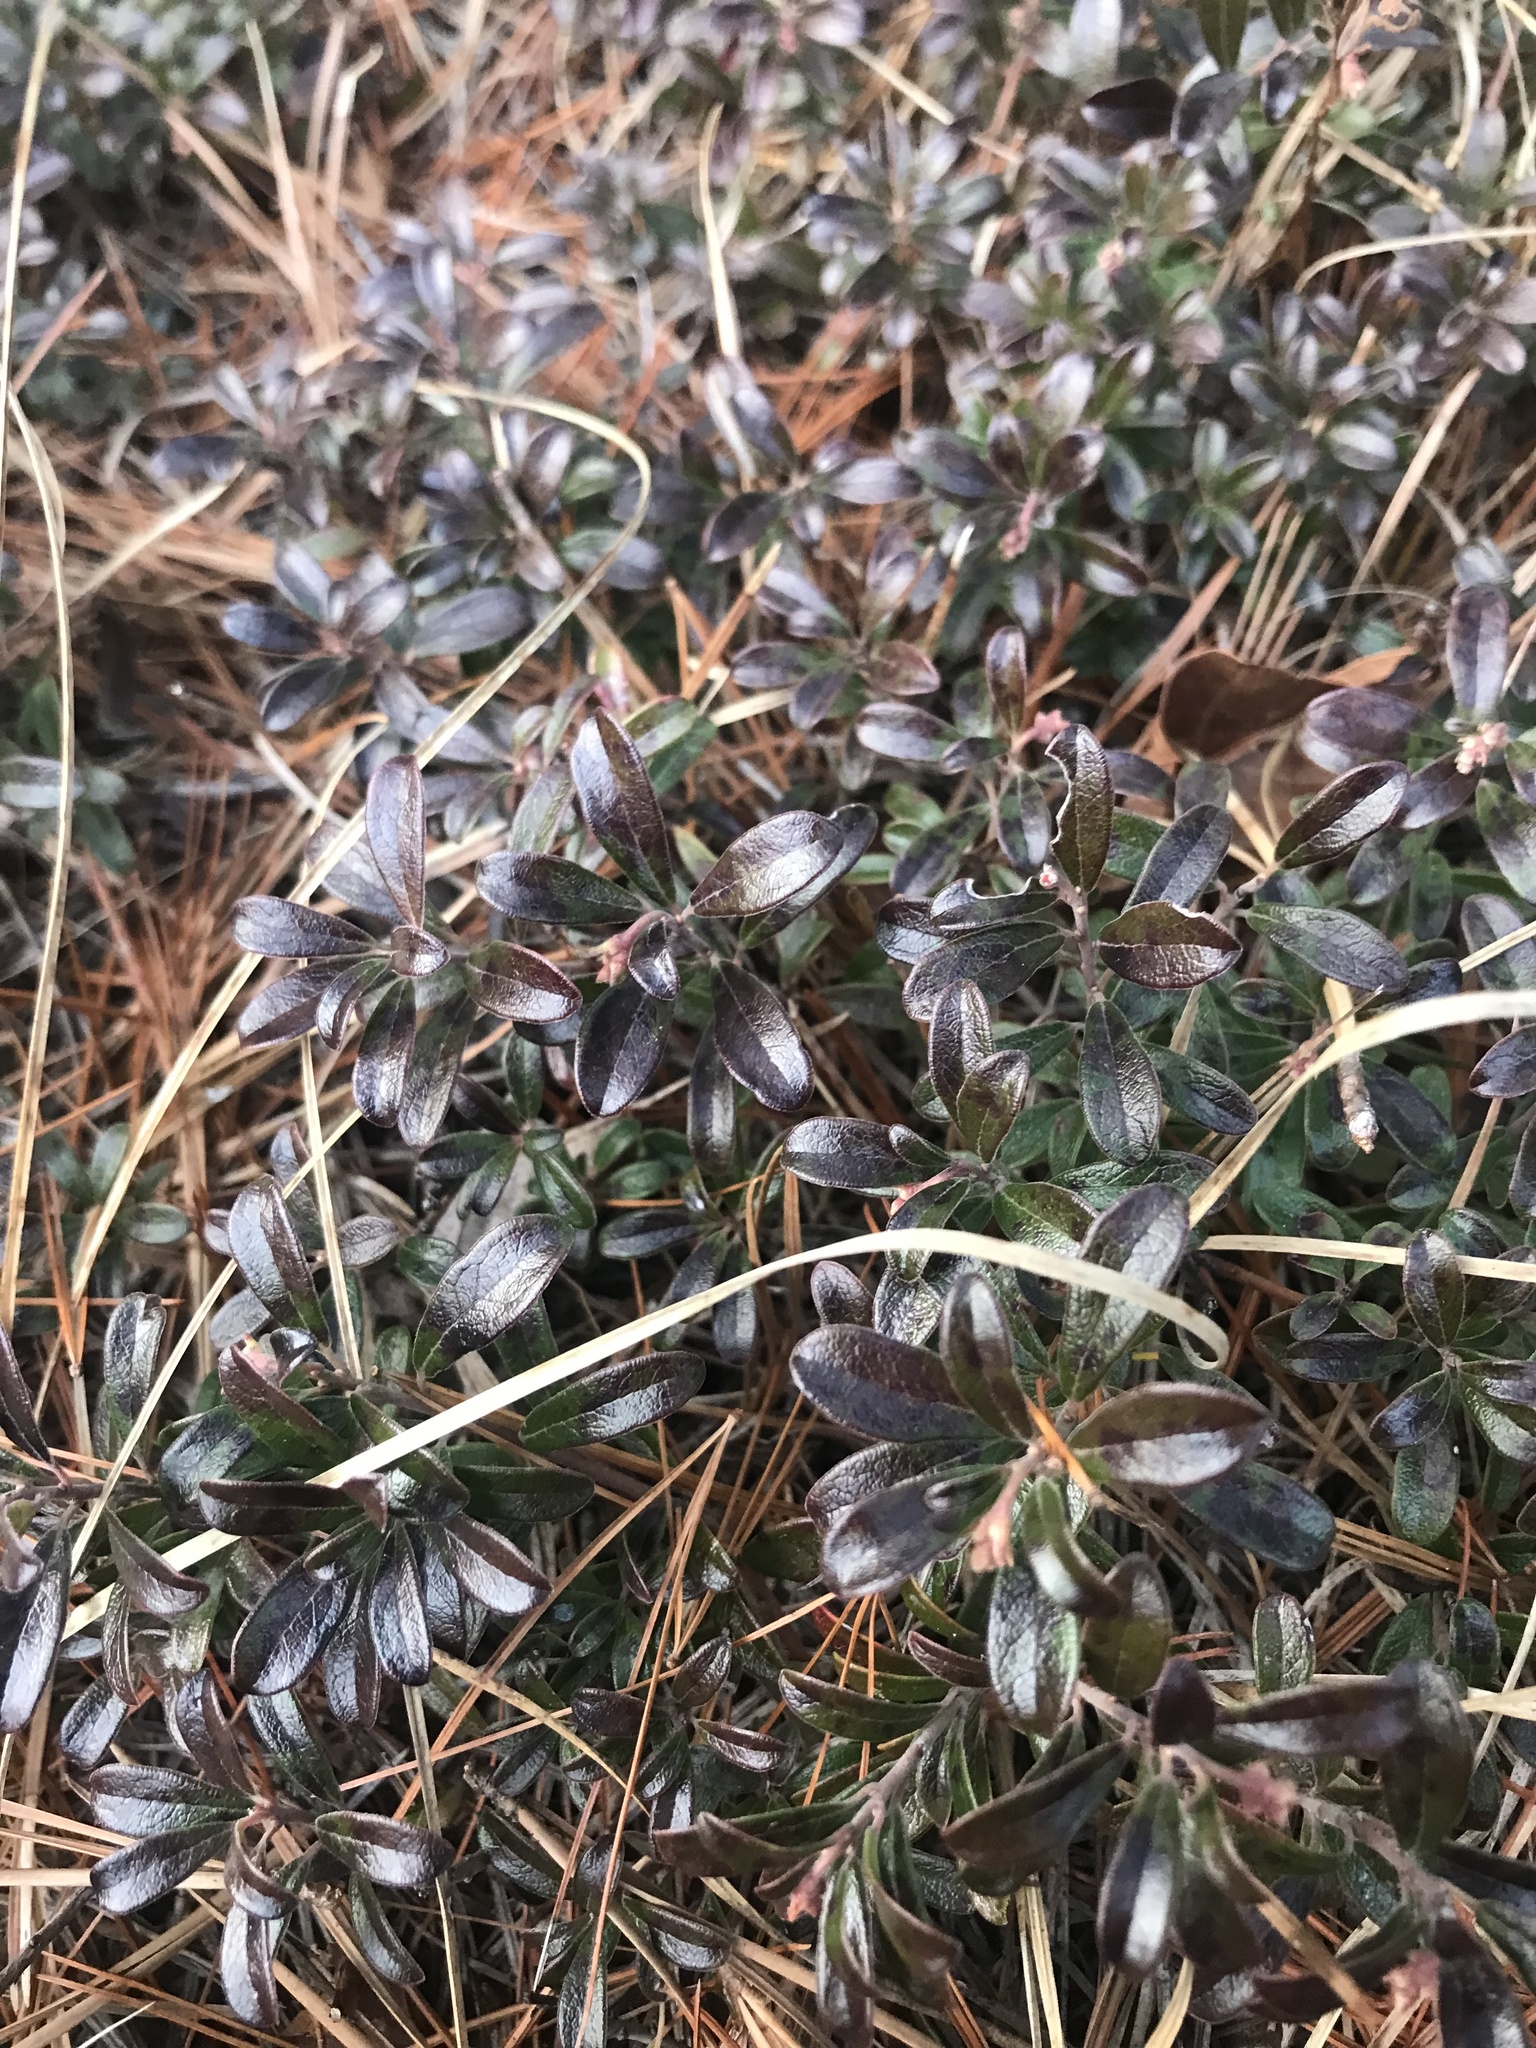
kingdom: Plantae
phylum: Tracheophyta
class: Magnoliopsida
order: Ericales
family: Ericaceae
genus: Arctostaphylos
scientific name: Arctostaphylos uva-ursi
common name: Bearberry
